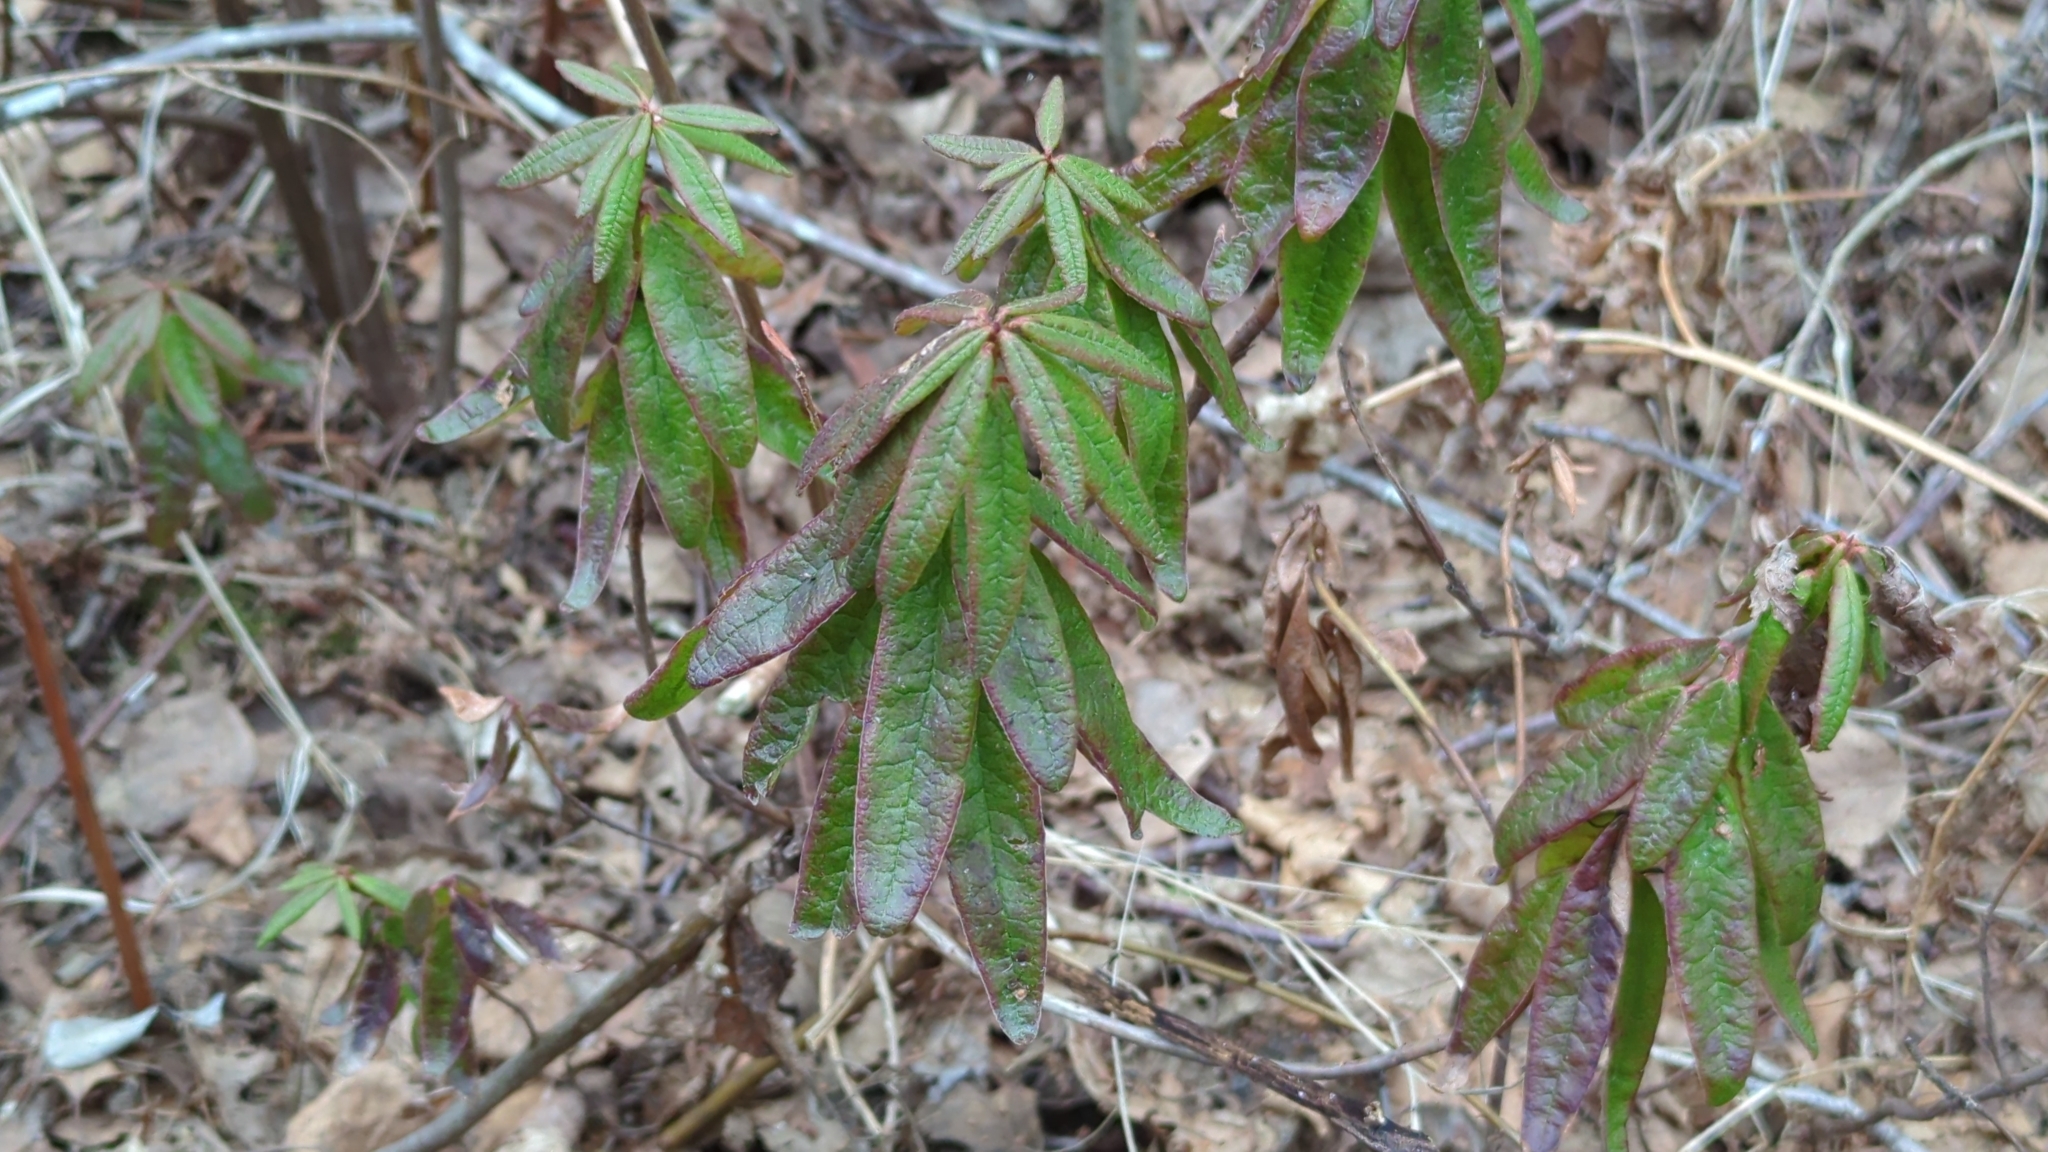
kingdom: Plantae
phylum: Tracheophyta
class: Magnoliopsida
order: Ericales
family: Ericaceae
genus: Rhododendron
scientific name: Rhododendron groenlandicum
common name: Bog labrador tea
